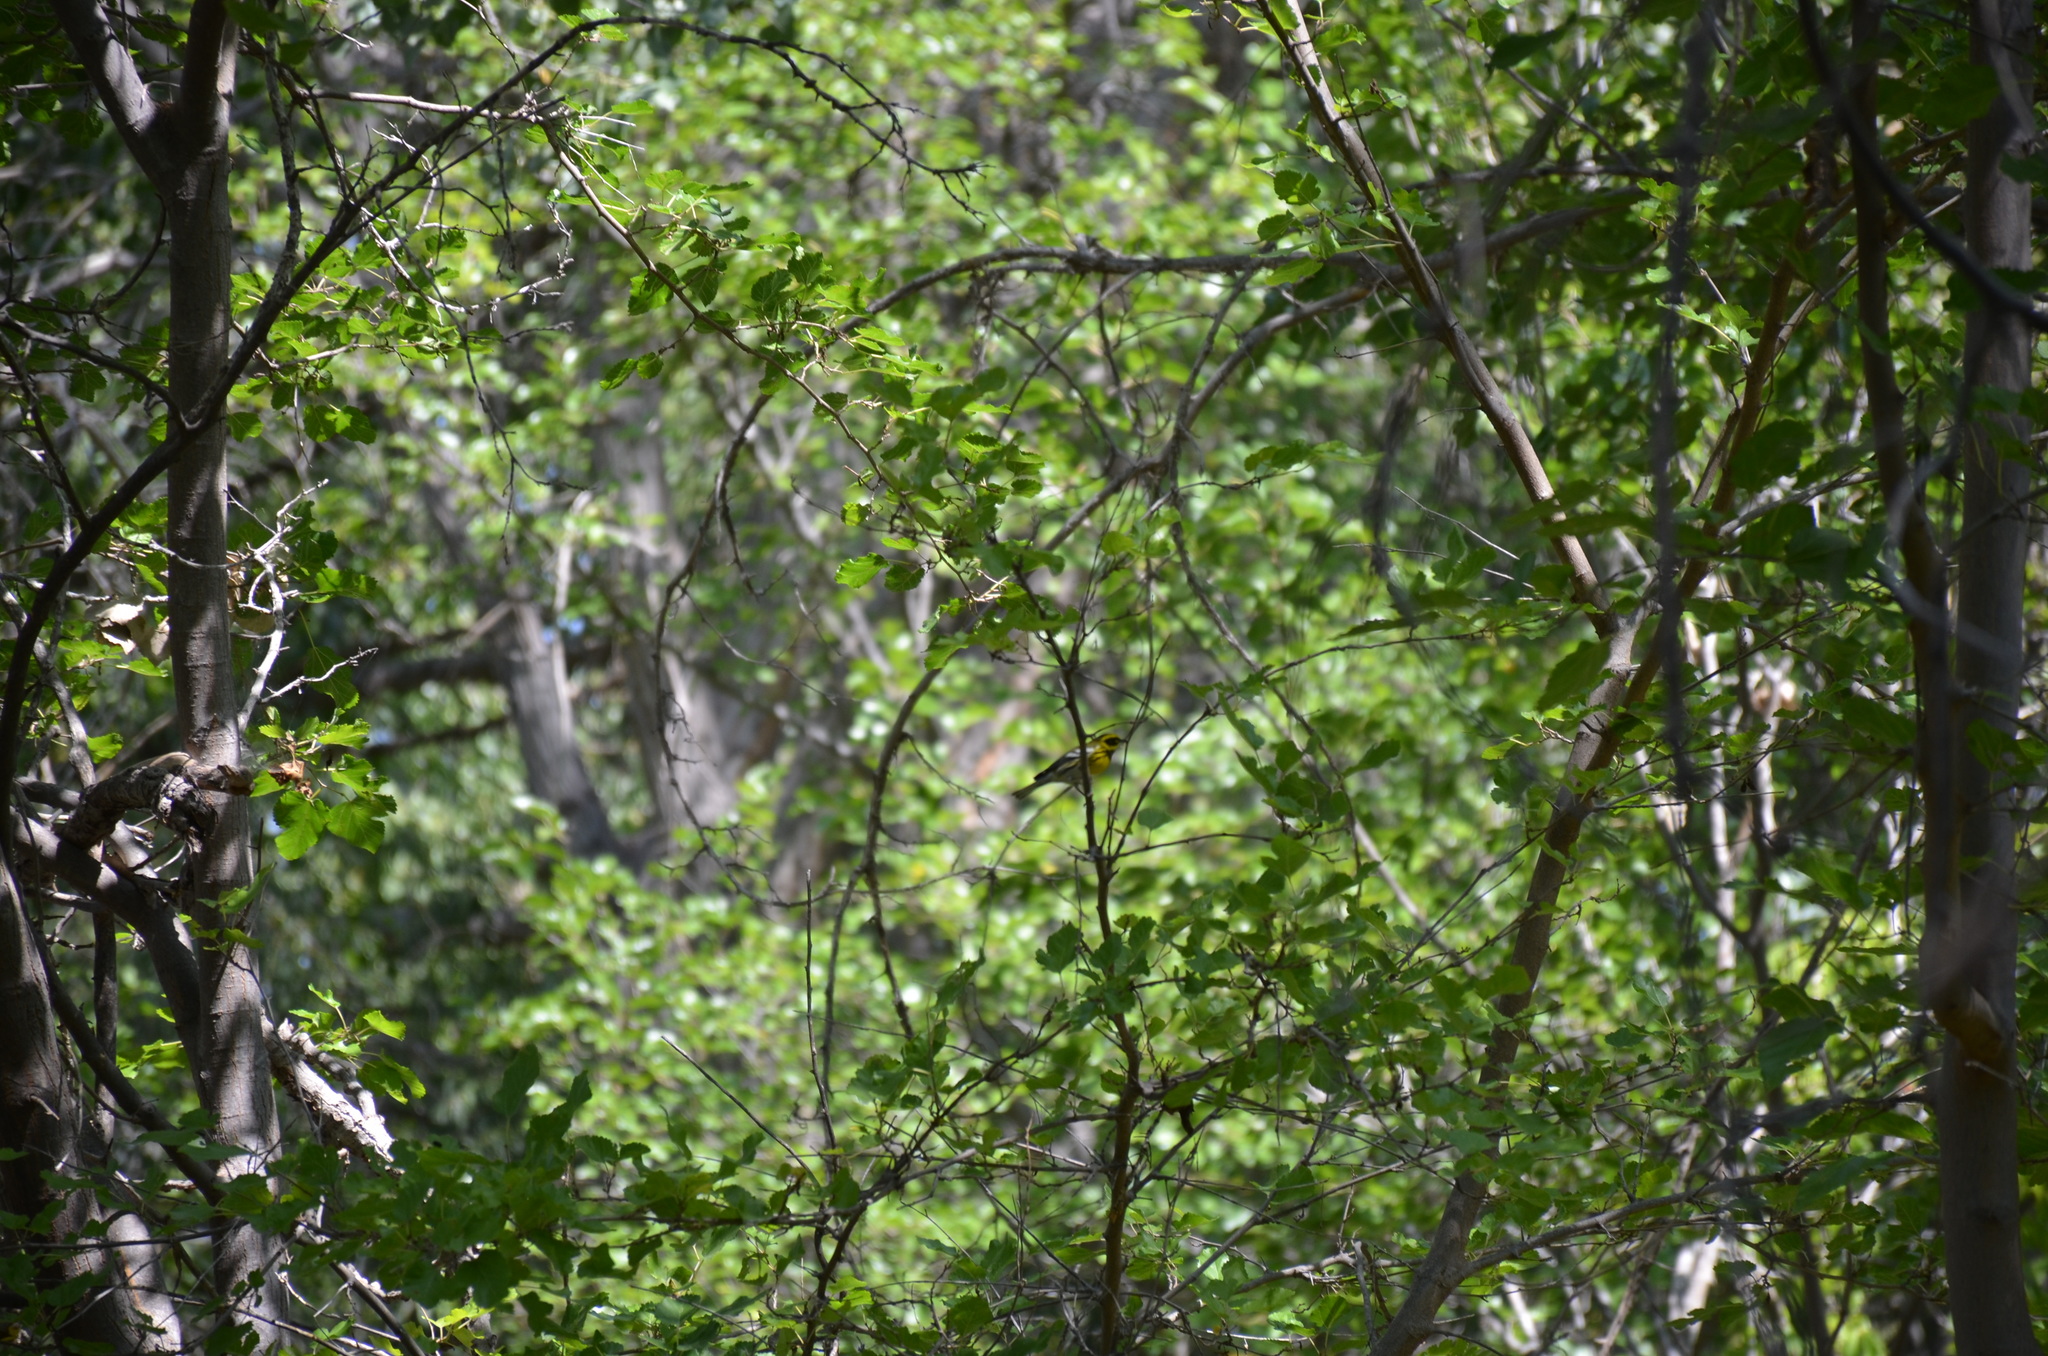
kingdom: Animalia
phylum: Chordata
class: Aves
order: Passeriformes
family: Parulidae
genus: Setophaga
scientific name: Setophaga townsendi
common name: Townsend's warbler
